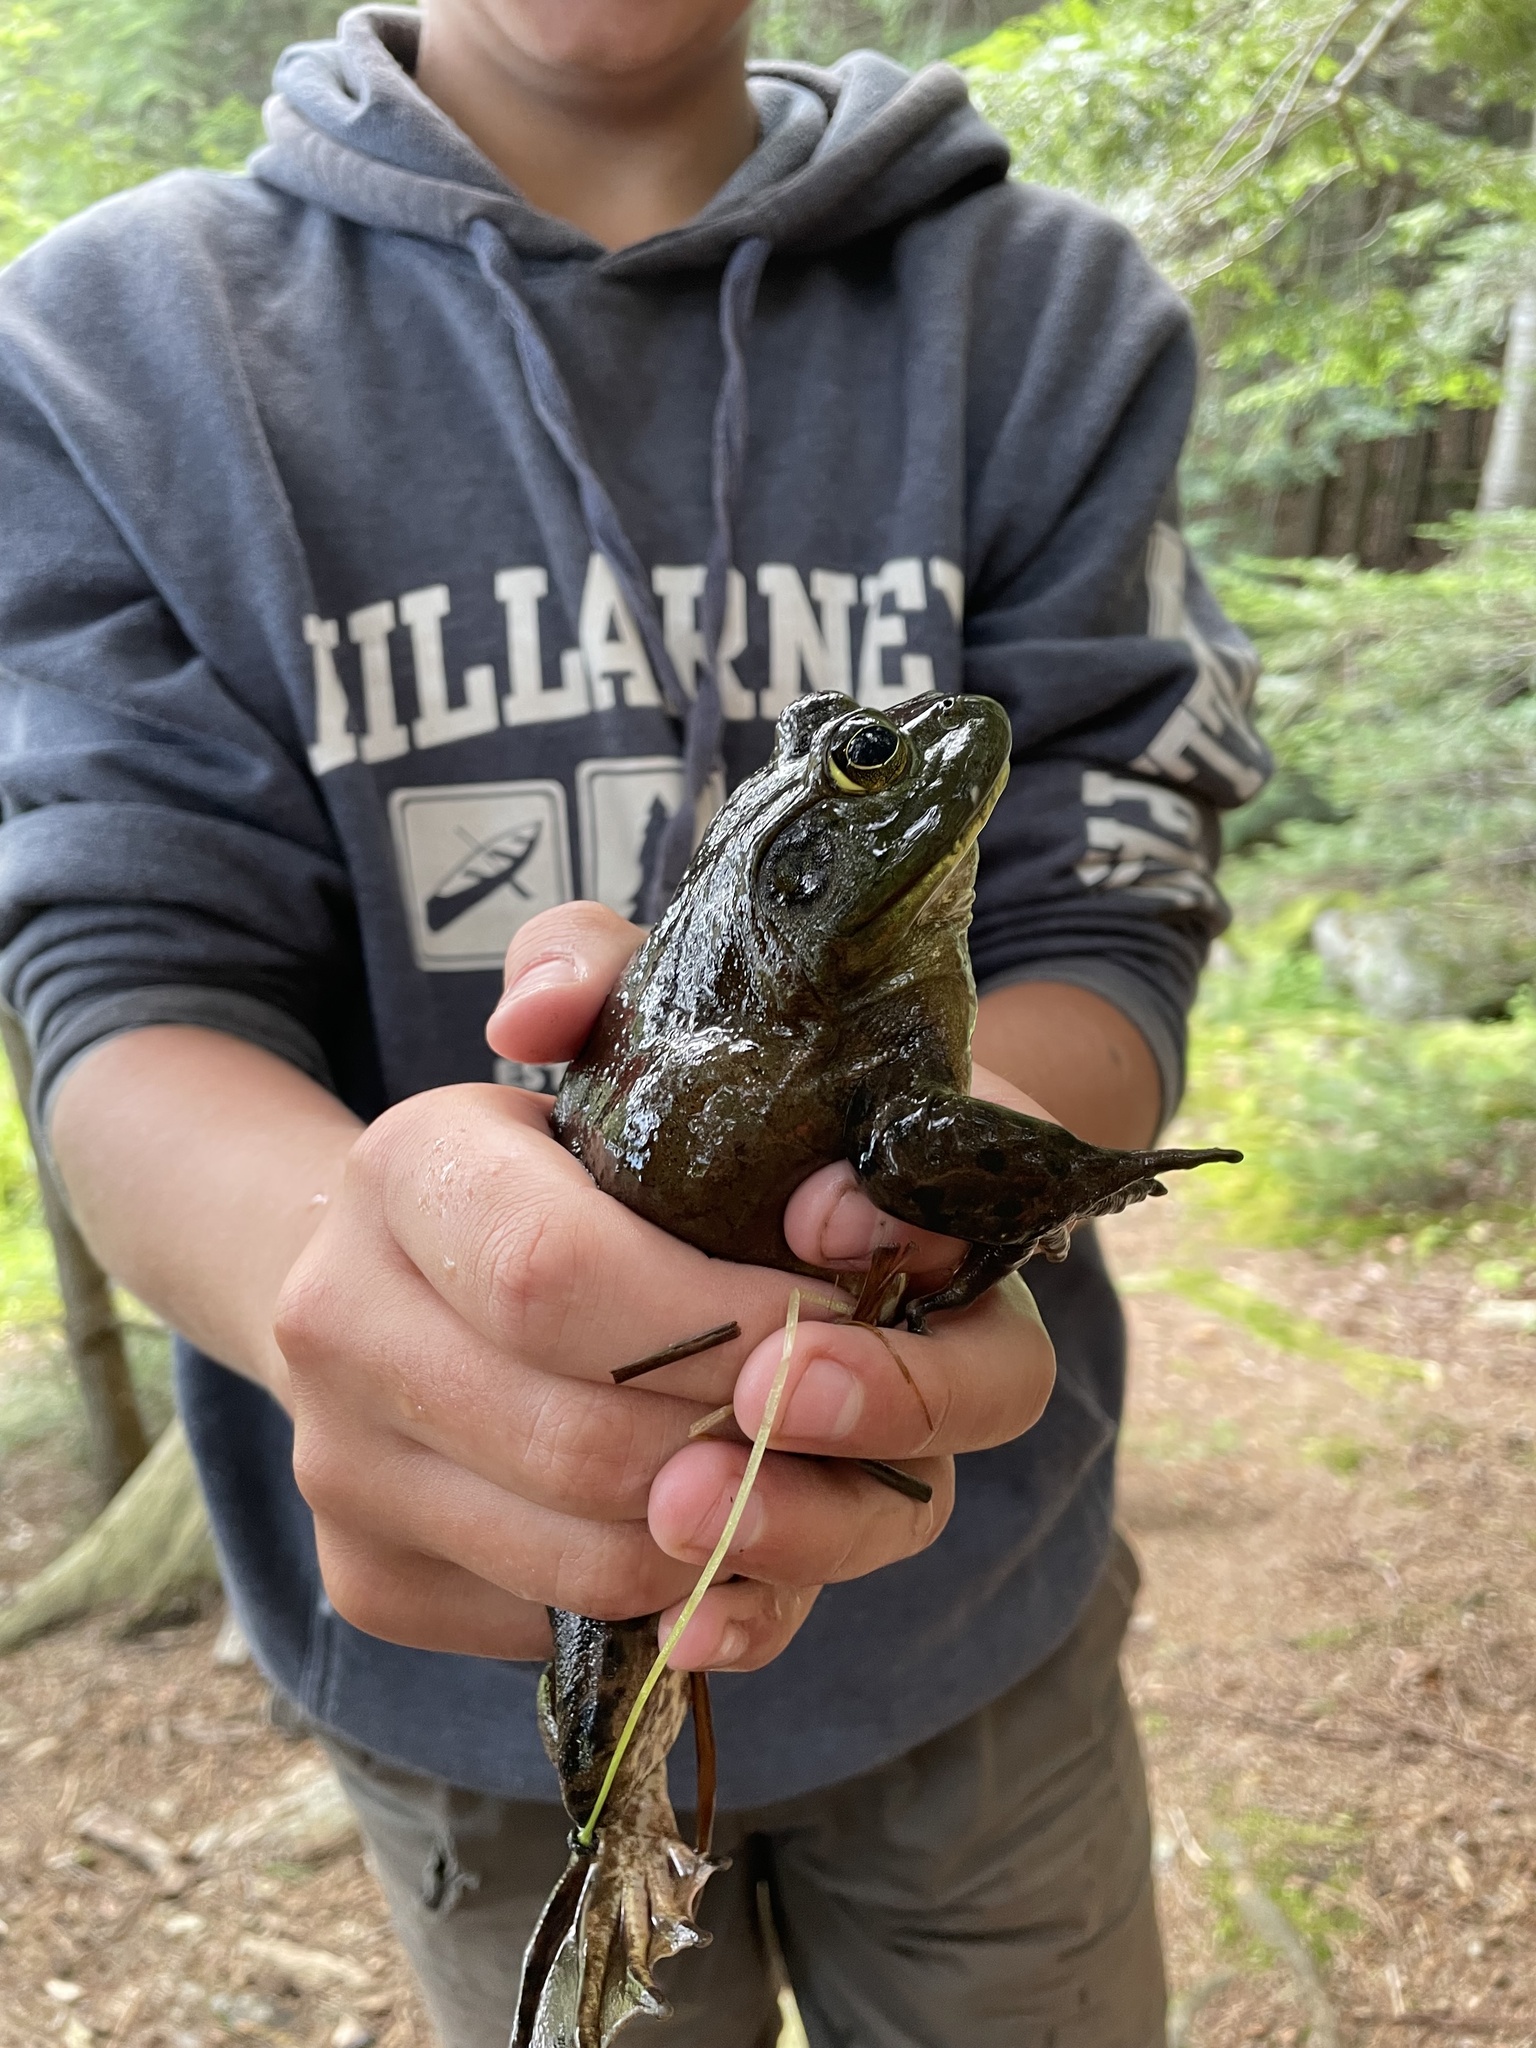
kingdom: Animalia
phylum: Chordata
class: Amphibia
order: Anura
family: Ranidae
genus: Lithobates
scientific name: Lithobates catesbeianus
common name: American bullfrog
